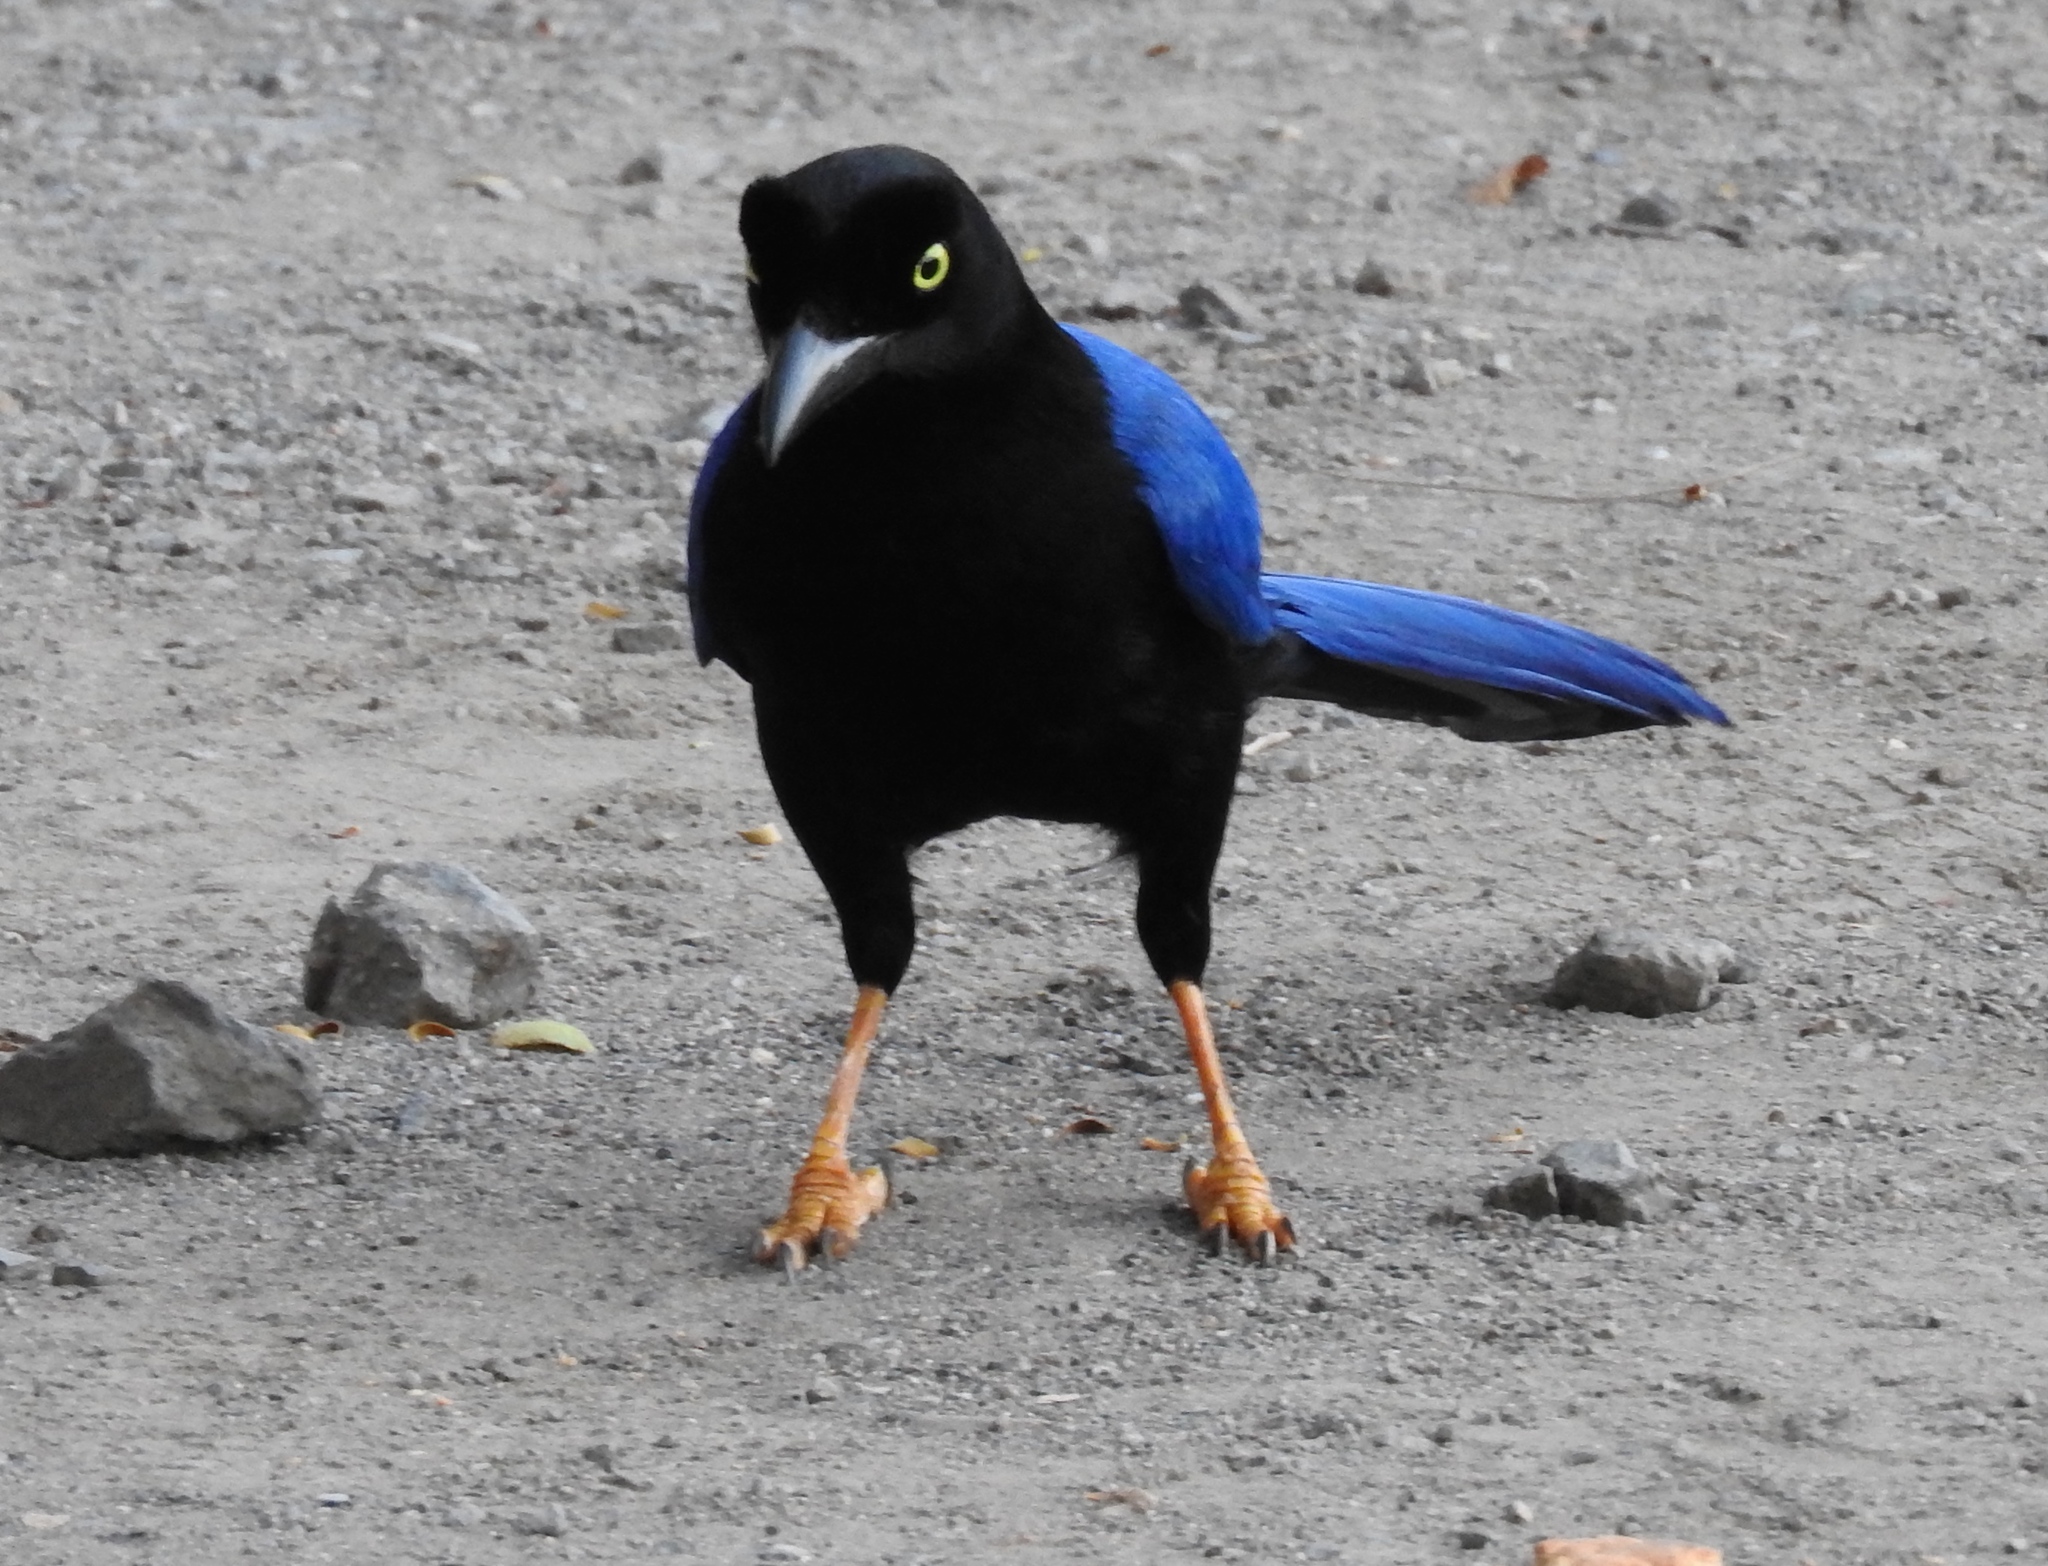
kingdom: Animalia
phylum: Chordata
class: Aves
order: Passeriformes
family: Corvidae
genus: Cyanocorax
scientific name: Cyanocorax beecheii
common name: Purplish-backed jay
